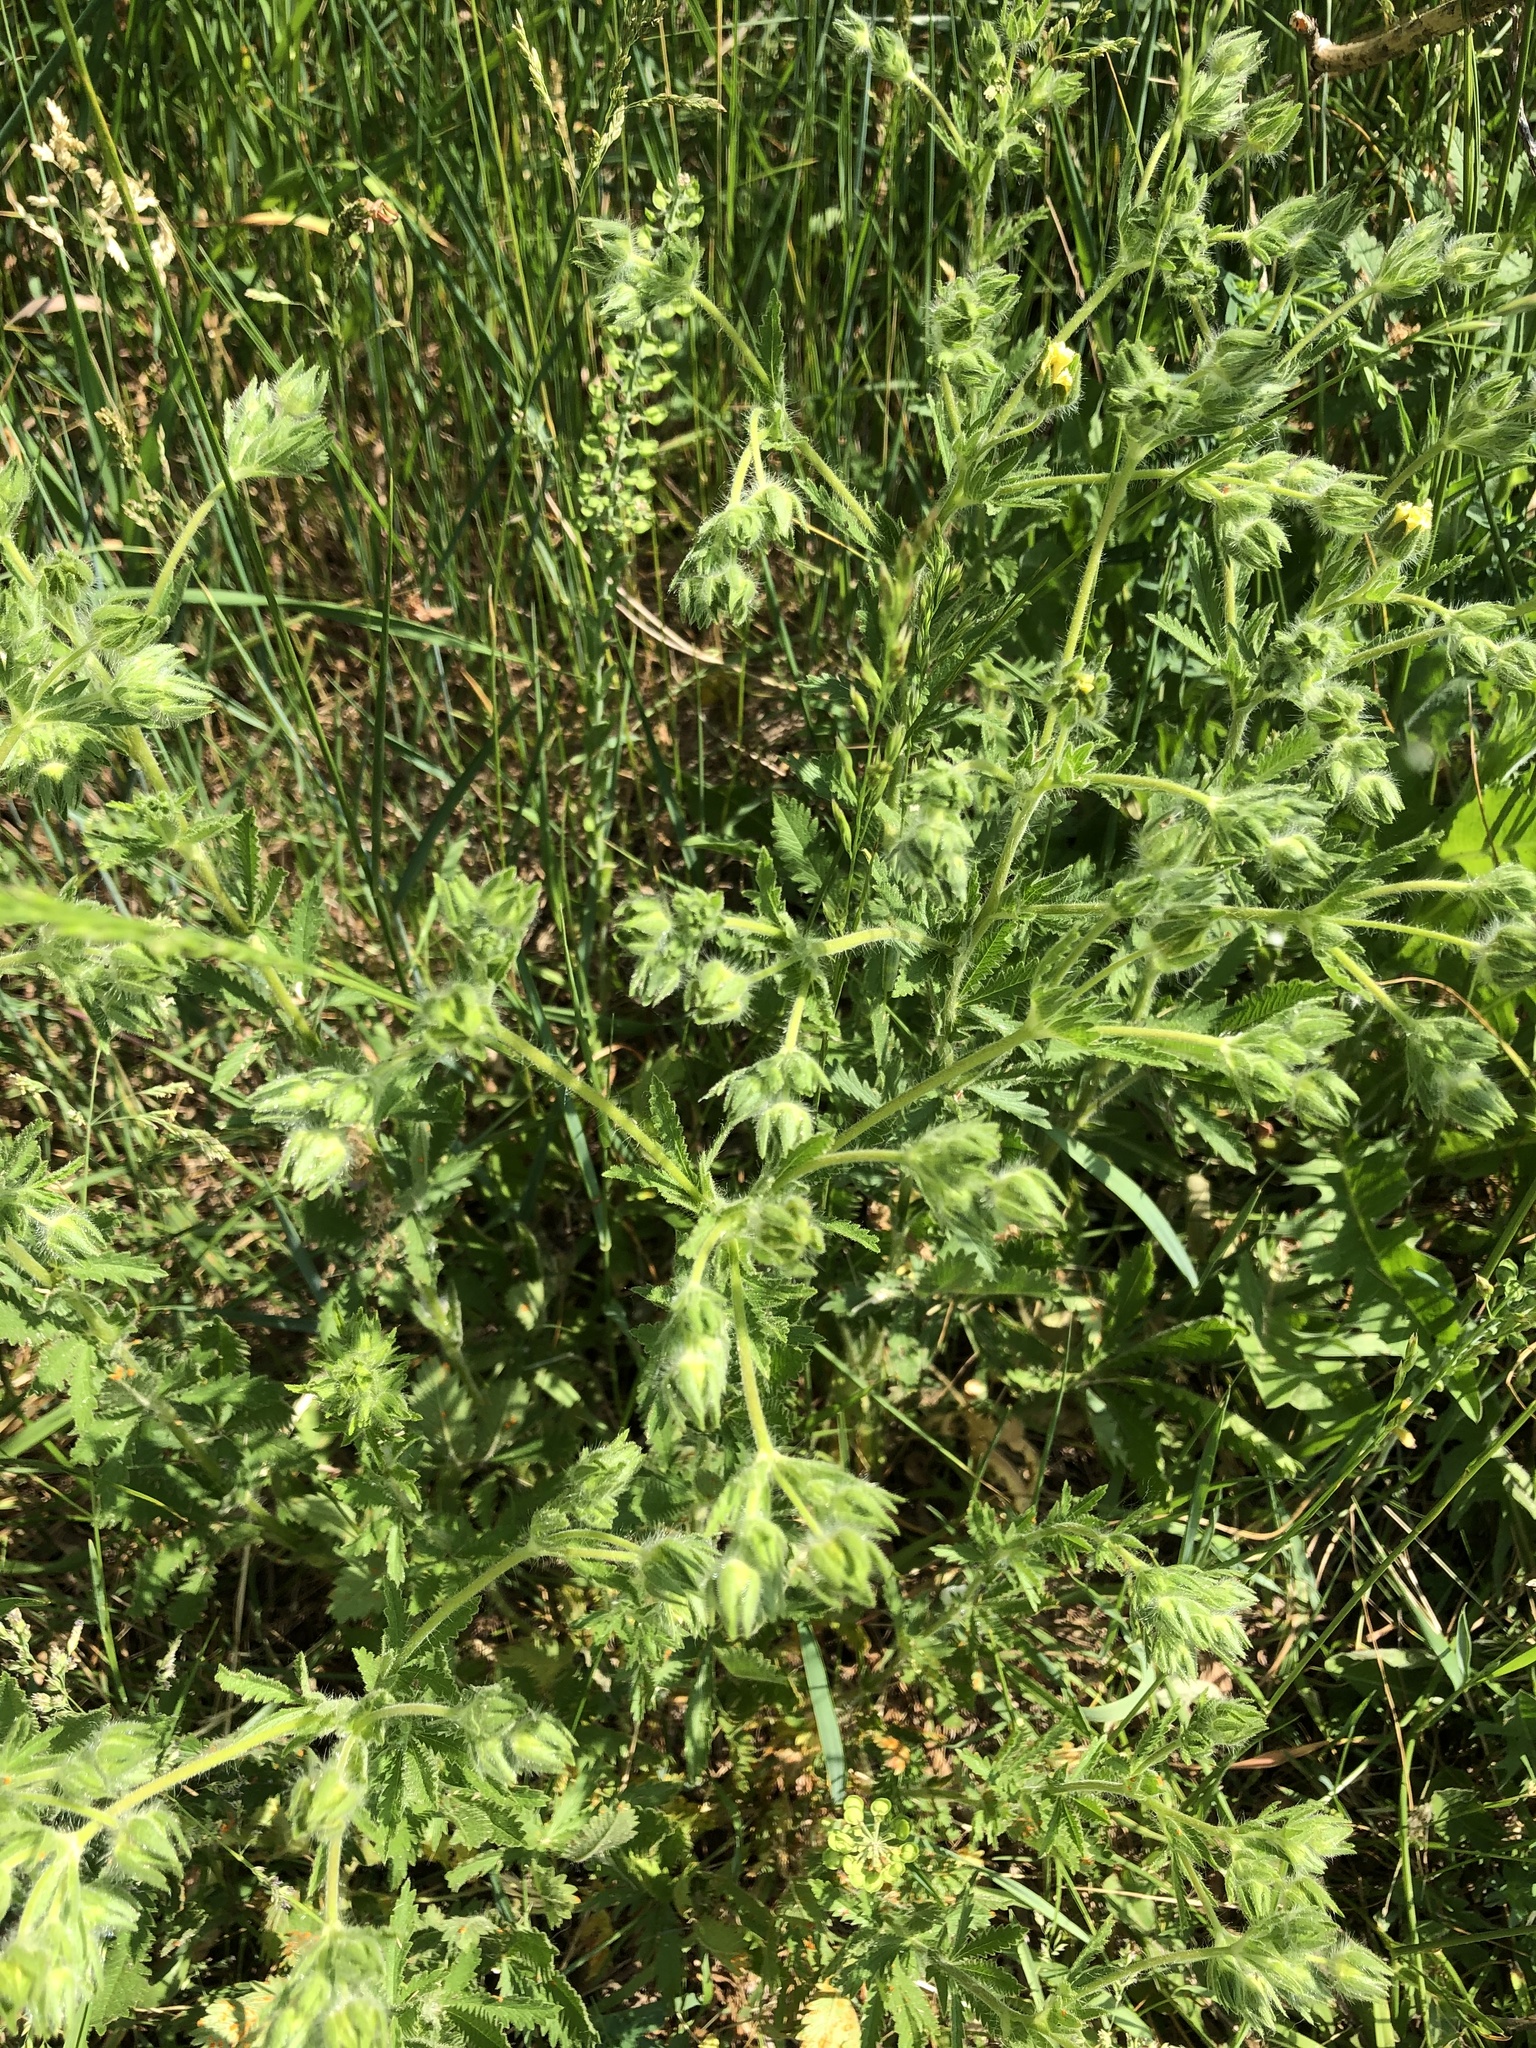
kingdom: Plantae
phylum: Tracheophyta
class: Magnoliopsida
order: Rosales
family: Rosaceae
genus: Potentilla
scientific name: Potentilla norvegica
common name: Ternate-leaved cinquefoil
